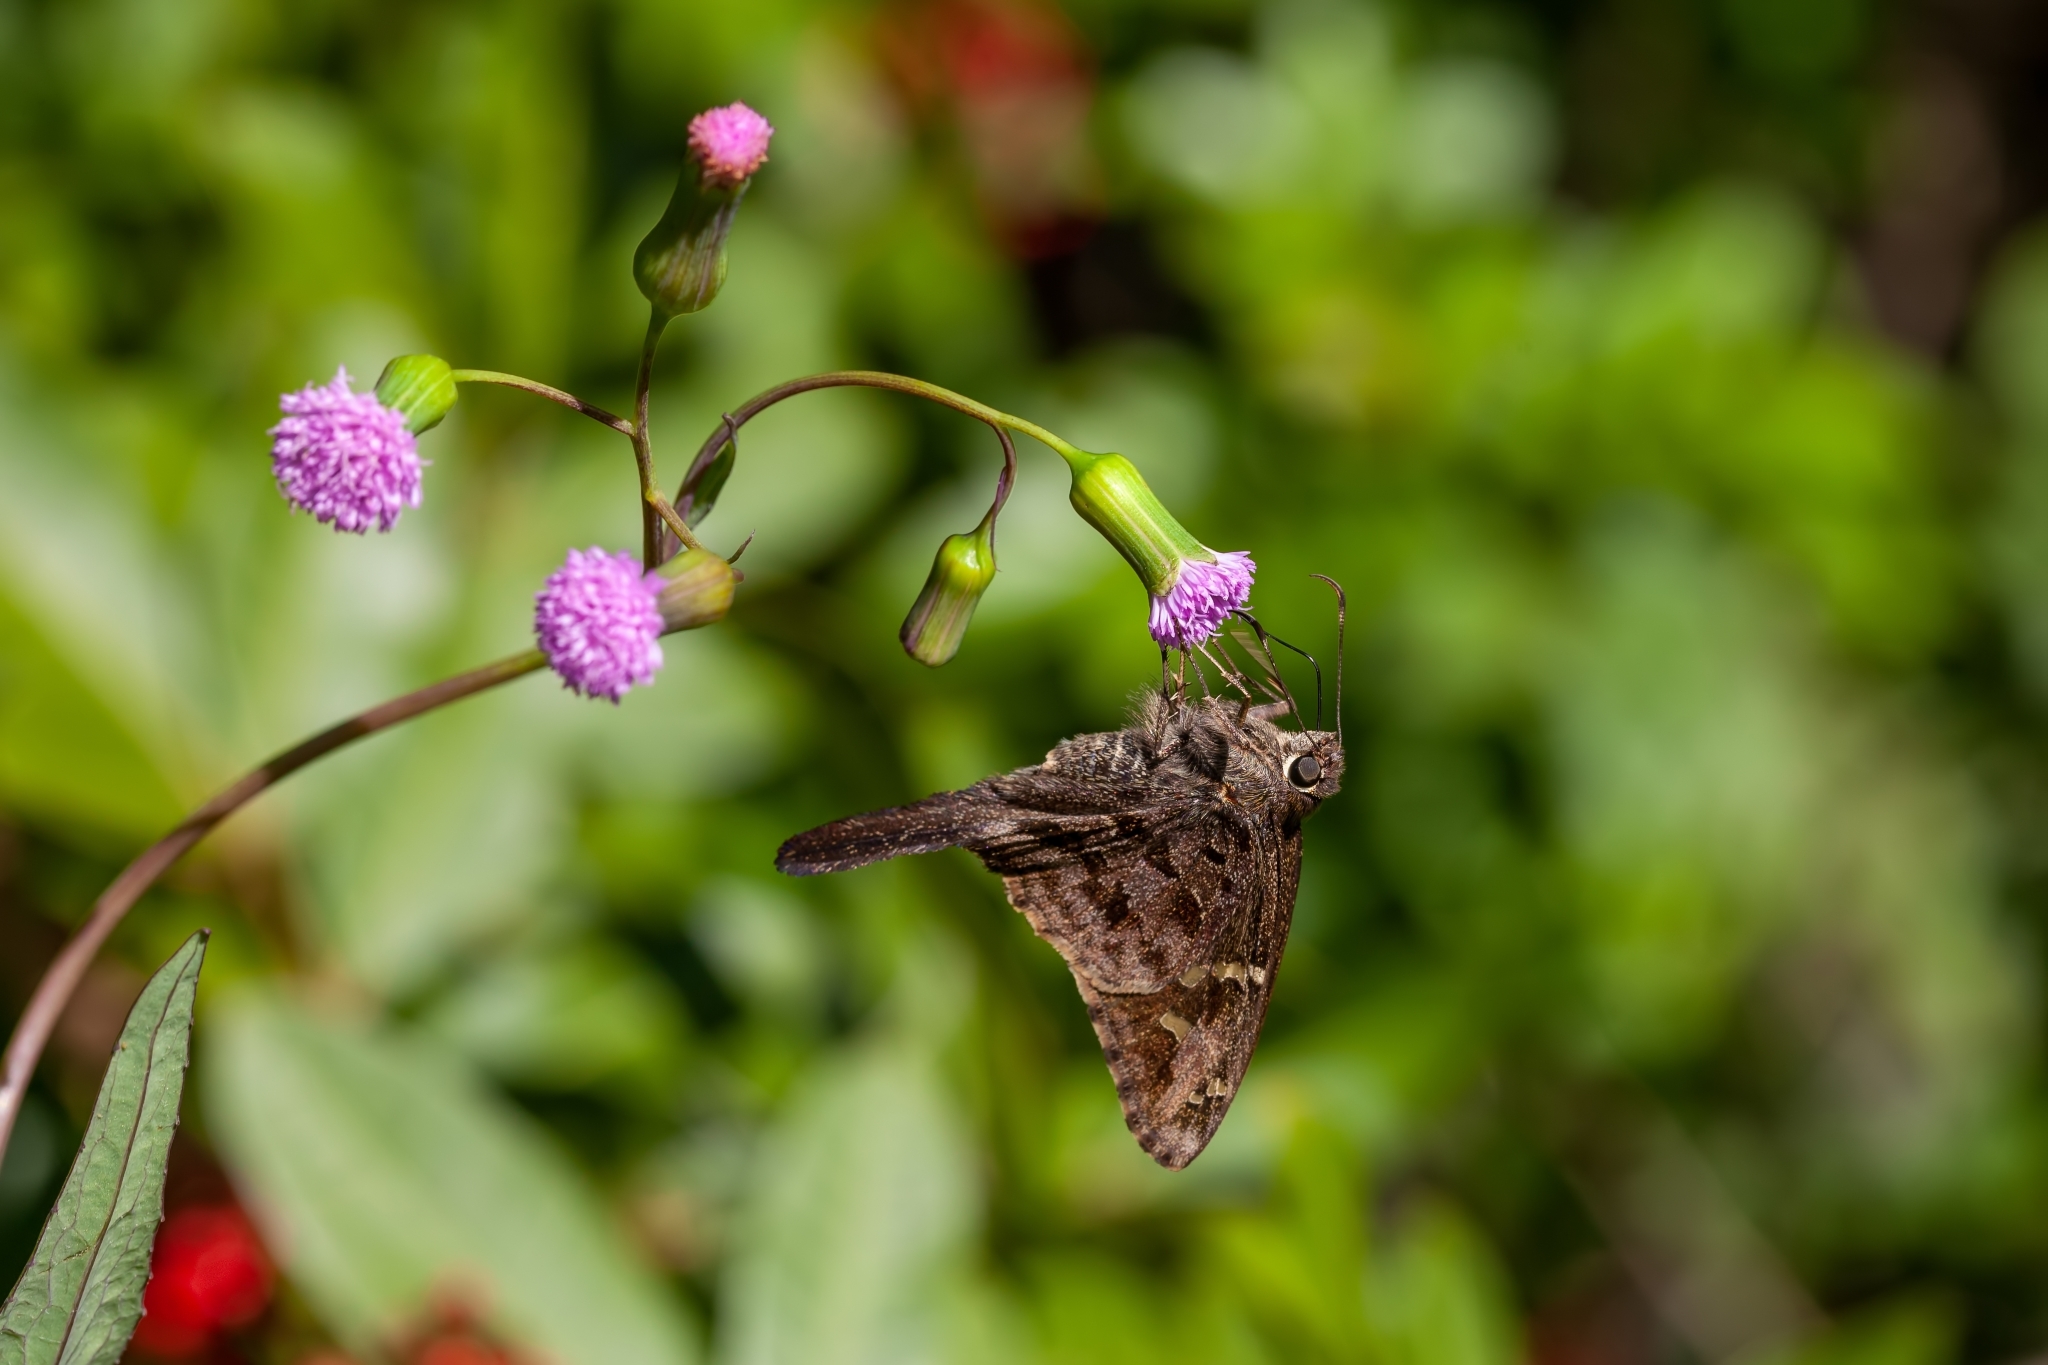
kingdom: Animalia
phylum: Arthropoda
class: Insecta
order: Lepidoptera
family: Hesperiidae
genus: Thorybes
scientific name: Thorybes
